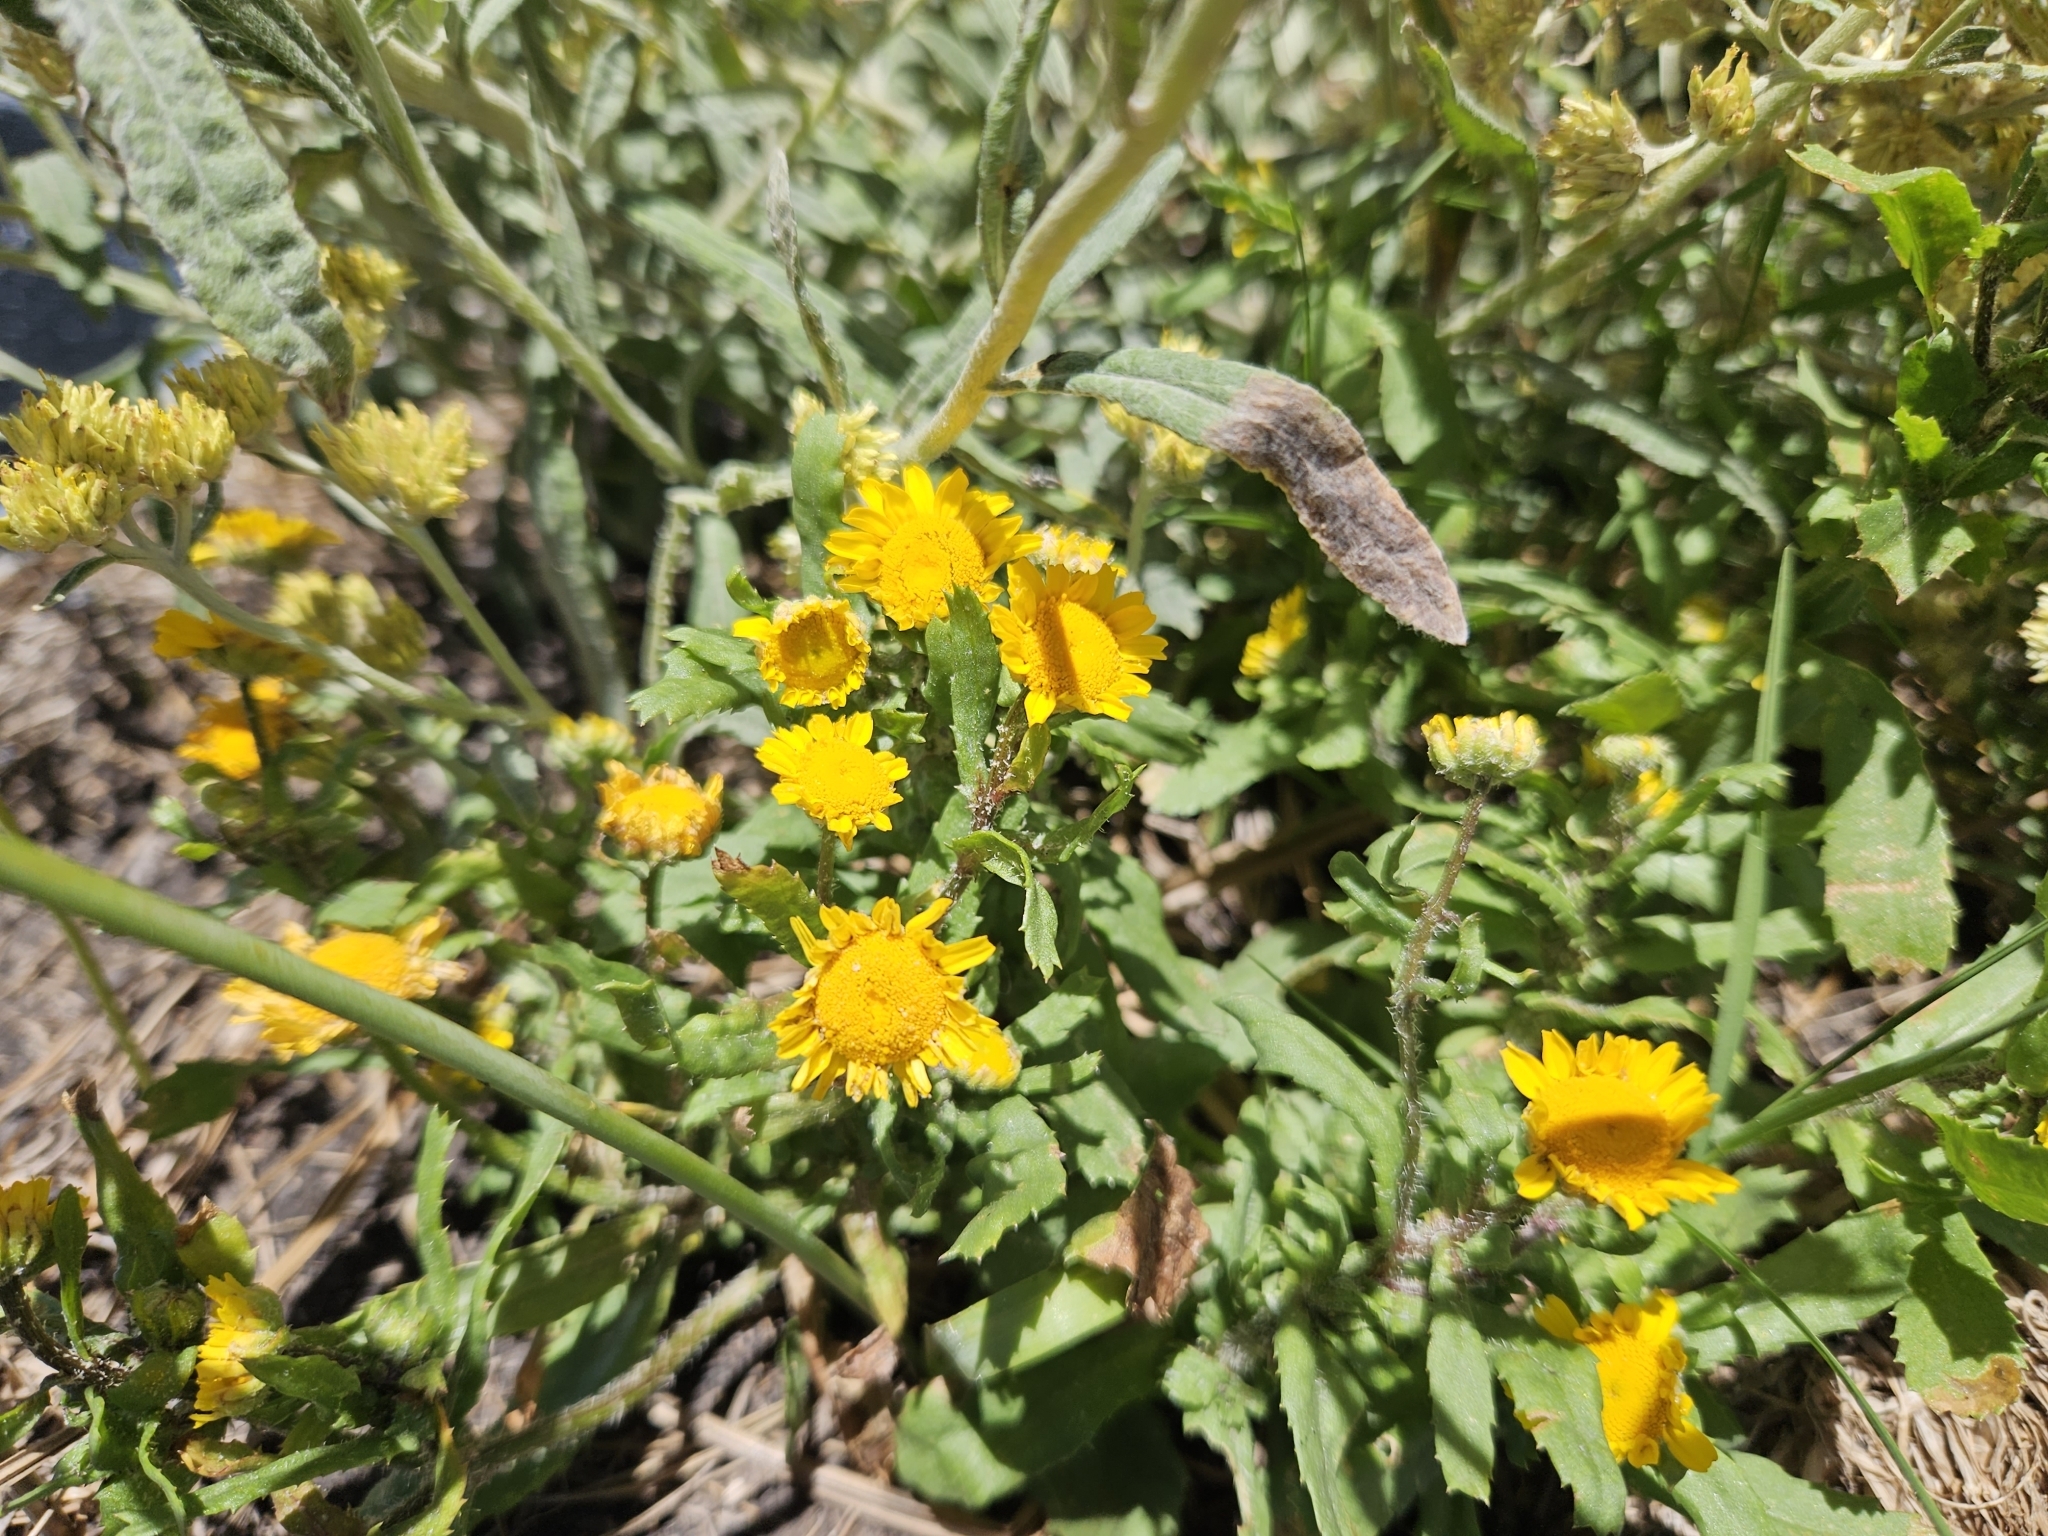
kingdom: Plantae
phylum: Tracheophyta
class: Magnoliopsida
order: Asterales
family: Asteraceae
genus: Coleostephus
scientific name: Coleostephus myconis
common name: Mediterranean marigold
